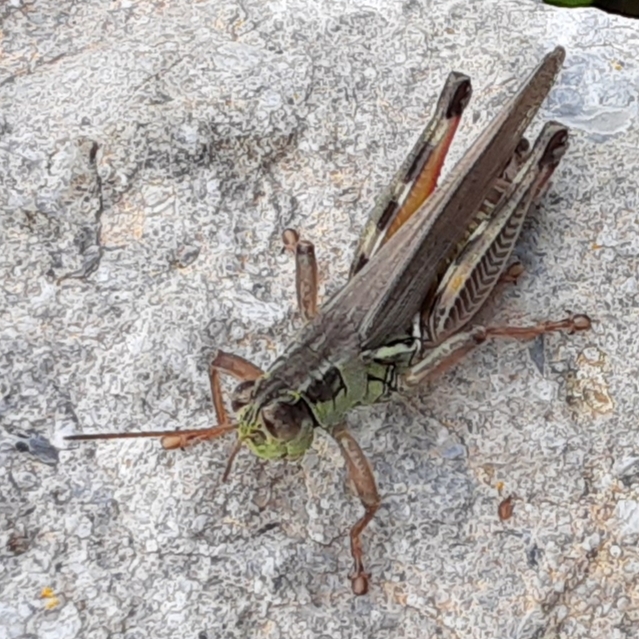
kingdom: Animalia
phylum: Arthropoda
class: Insecta
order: Orthoptera
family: Acrididae
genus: Melanoplus
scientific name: Melanoplus femurrubrum
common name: Red-legged grasshopper
